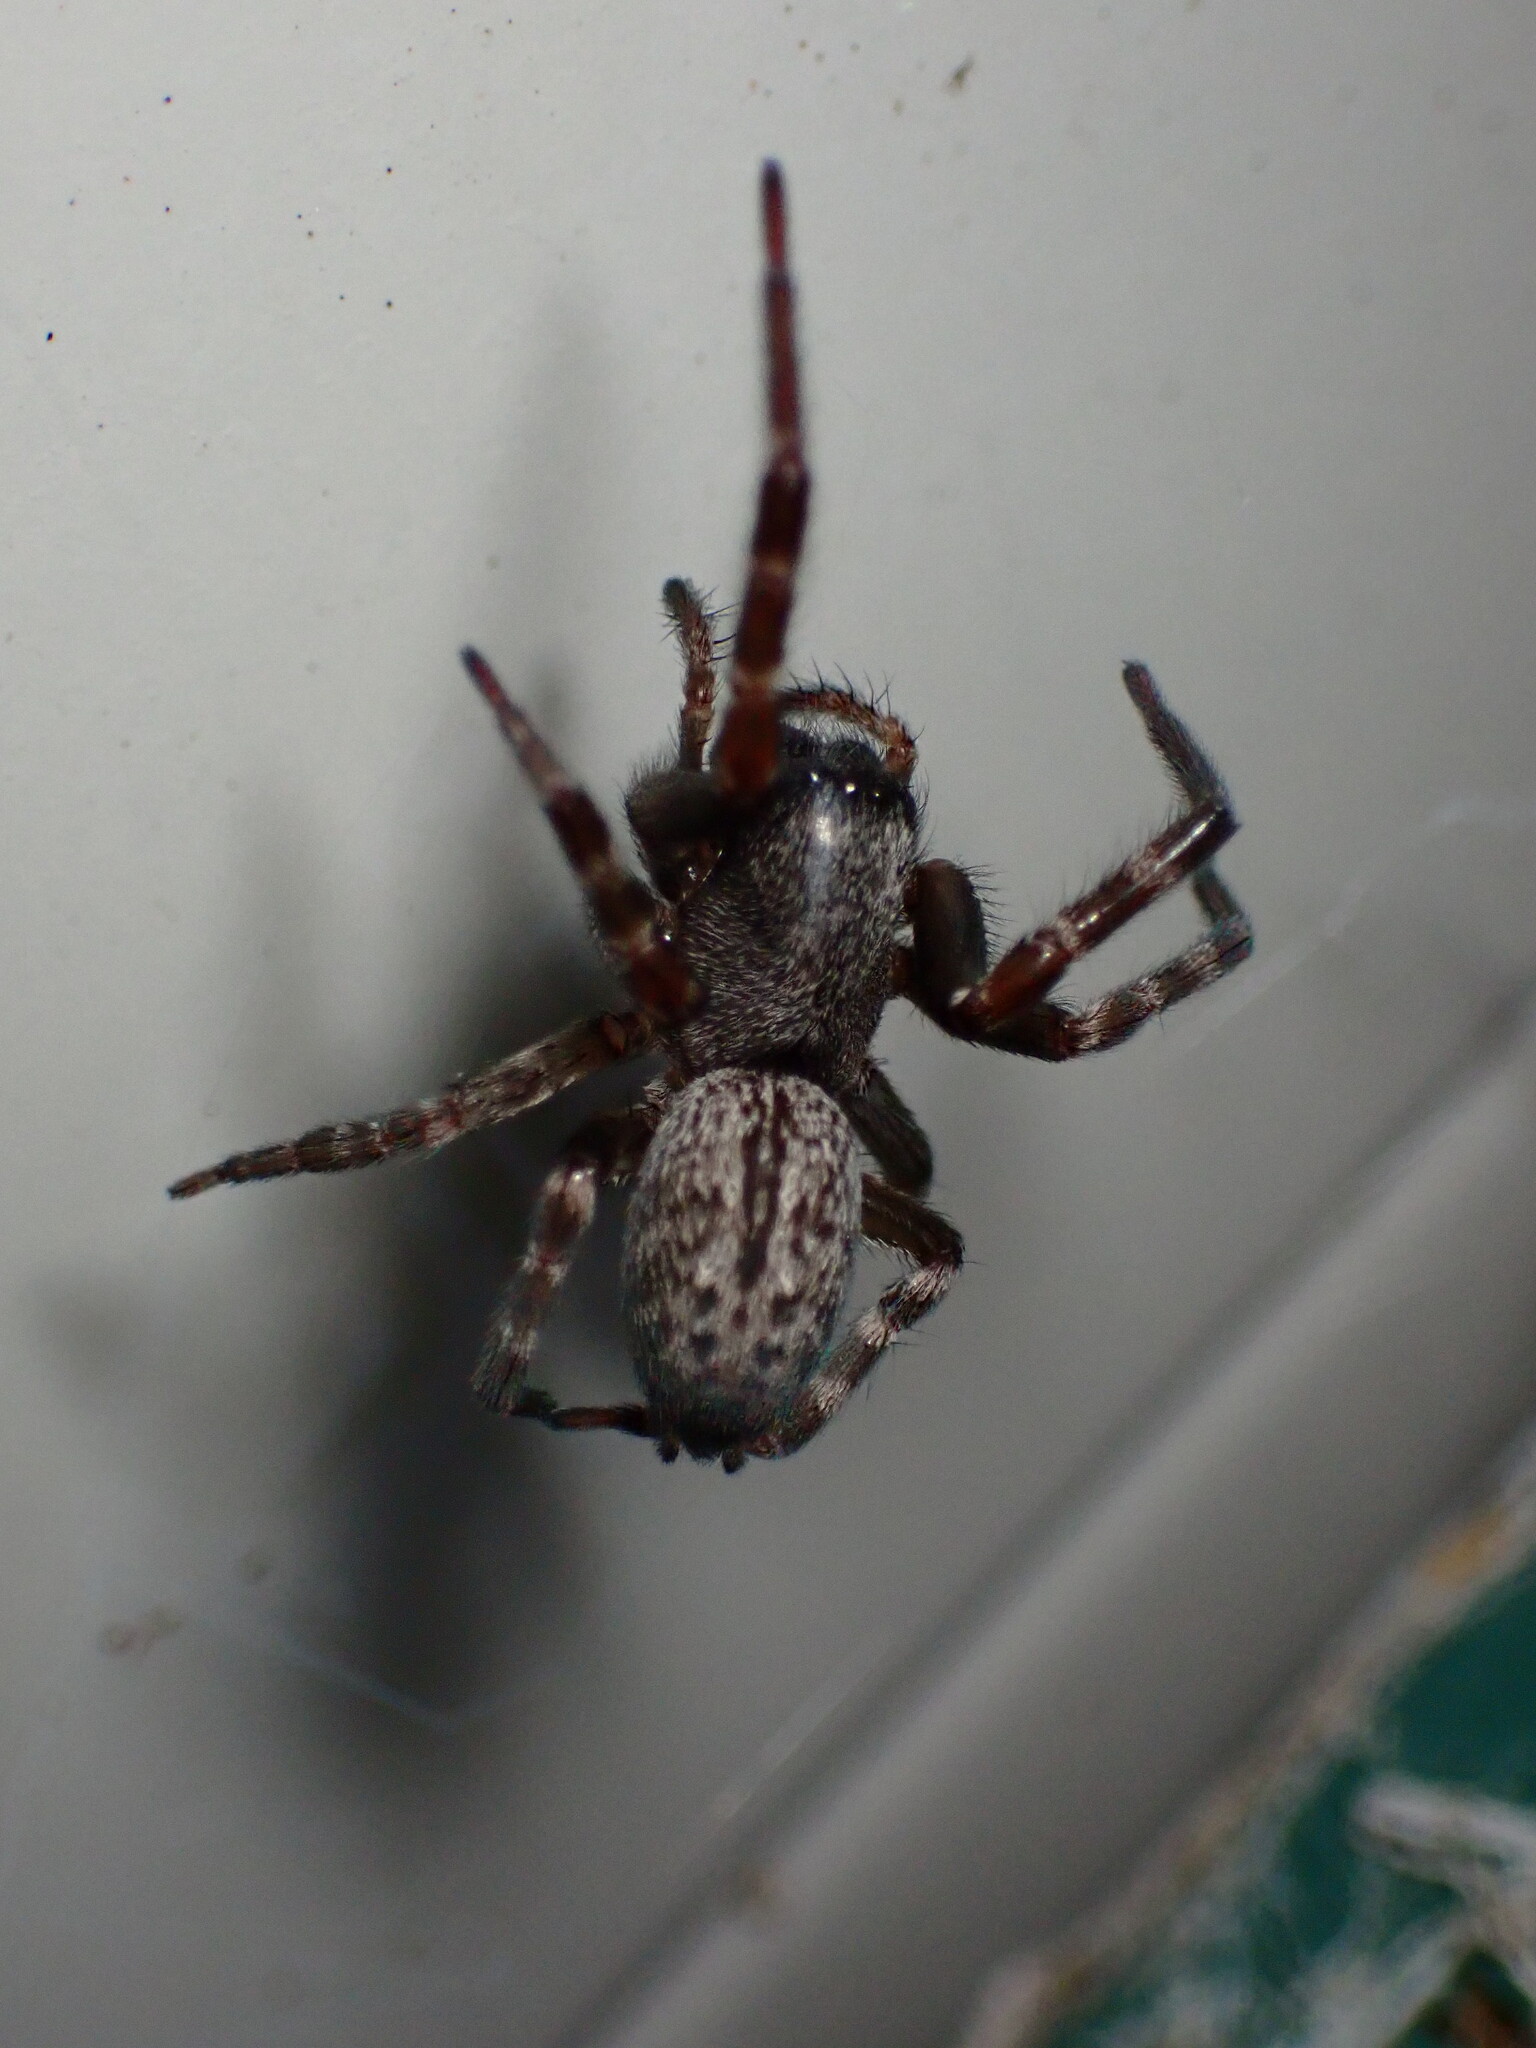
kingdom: Animalia
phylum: Arthropoda
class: Arachnida
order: Araneae
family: Desidae
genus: Badumna
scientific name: Badumna longinqua
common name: Gray house spider
